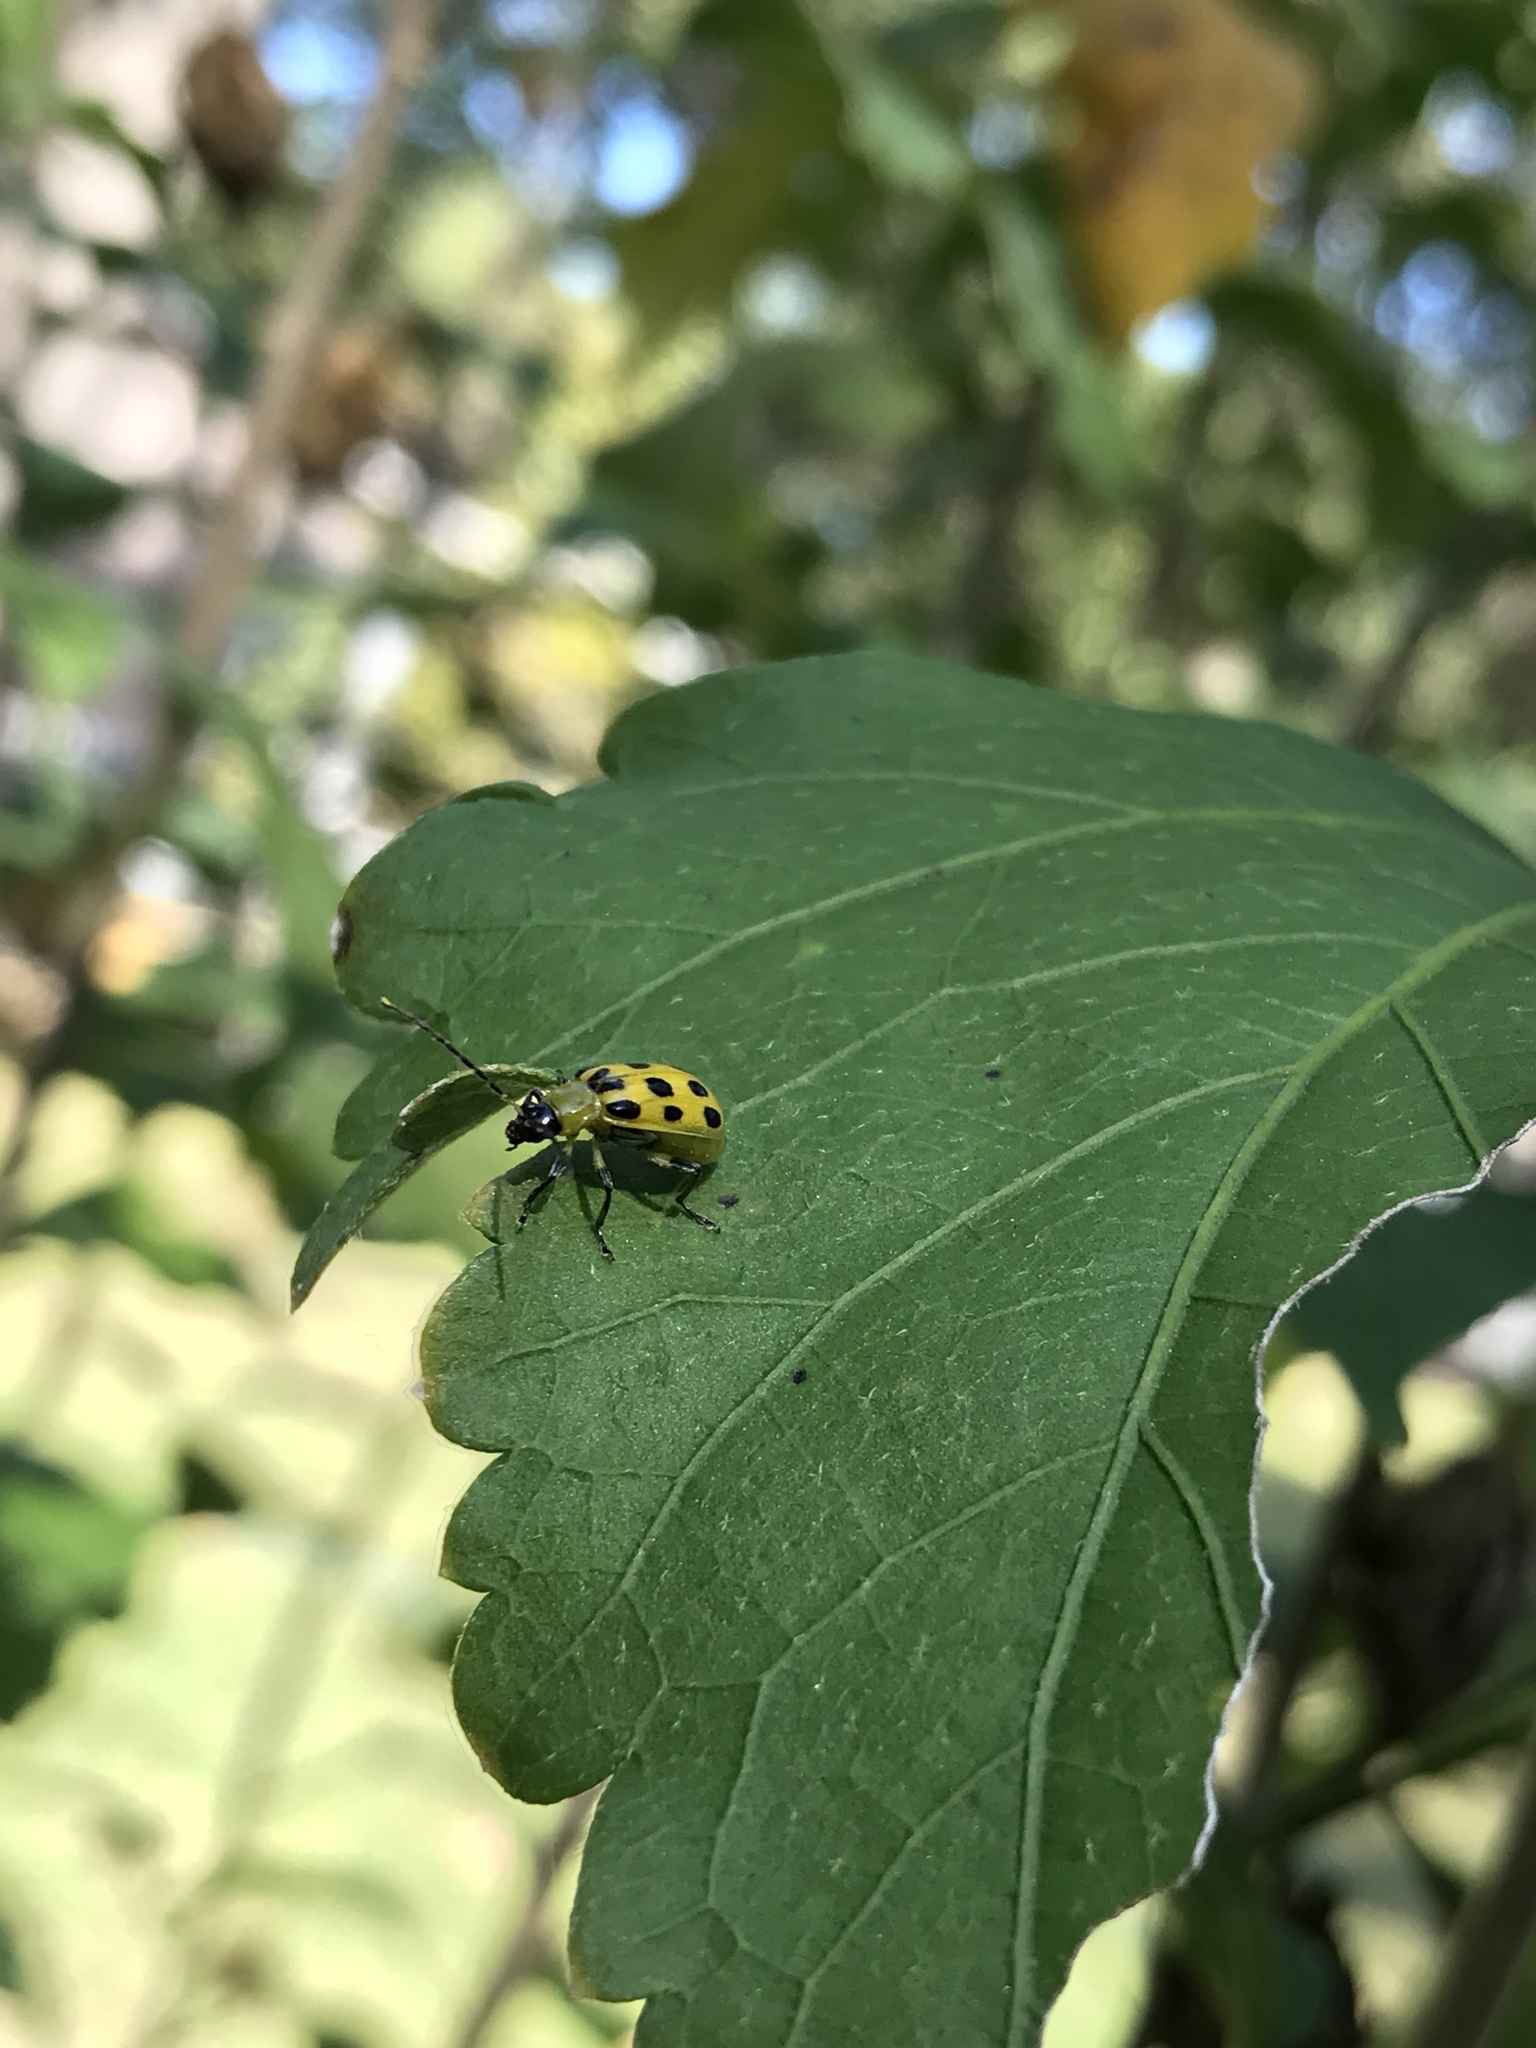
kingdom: Animalia
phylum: Arthropoda
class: Insecta
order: Coleoptera
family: Chrysomelidae
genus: Diabrotica
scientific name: Diabrotica undecimpunctata
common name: Spotted cucumber beetle
